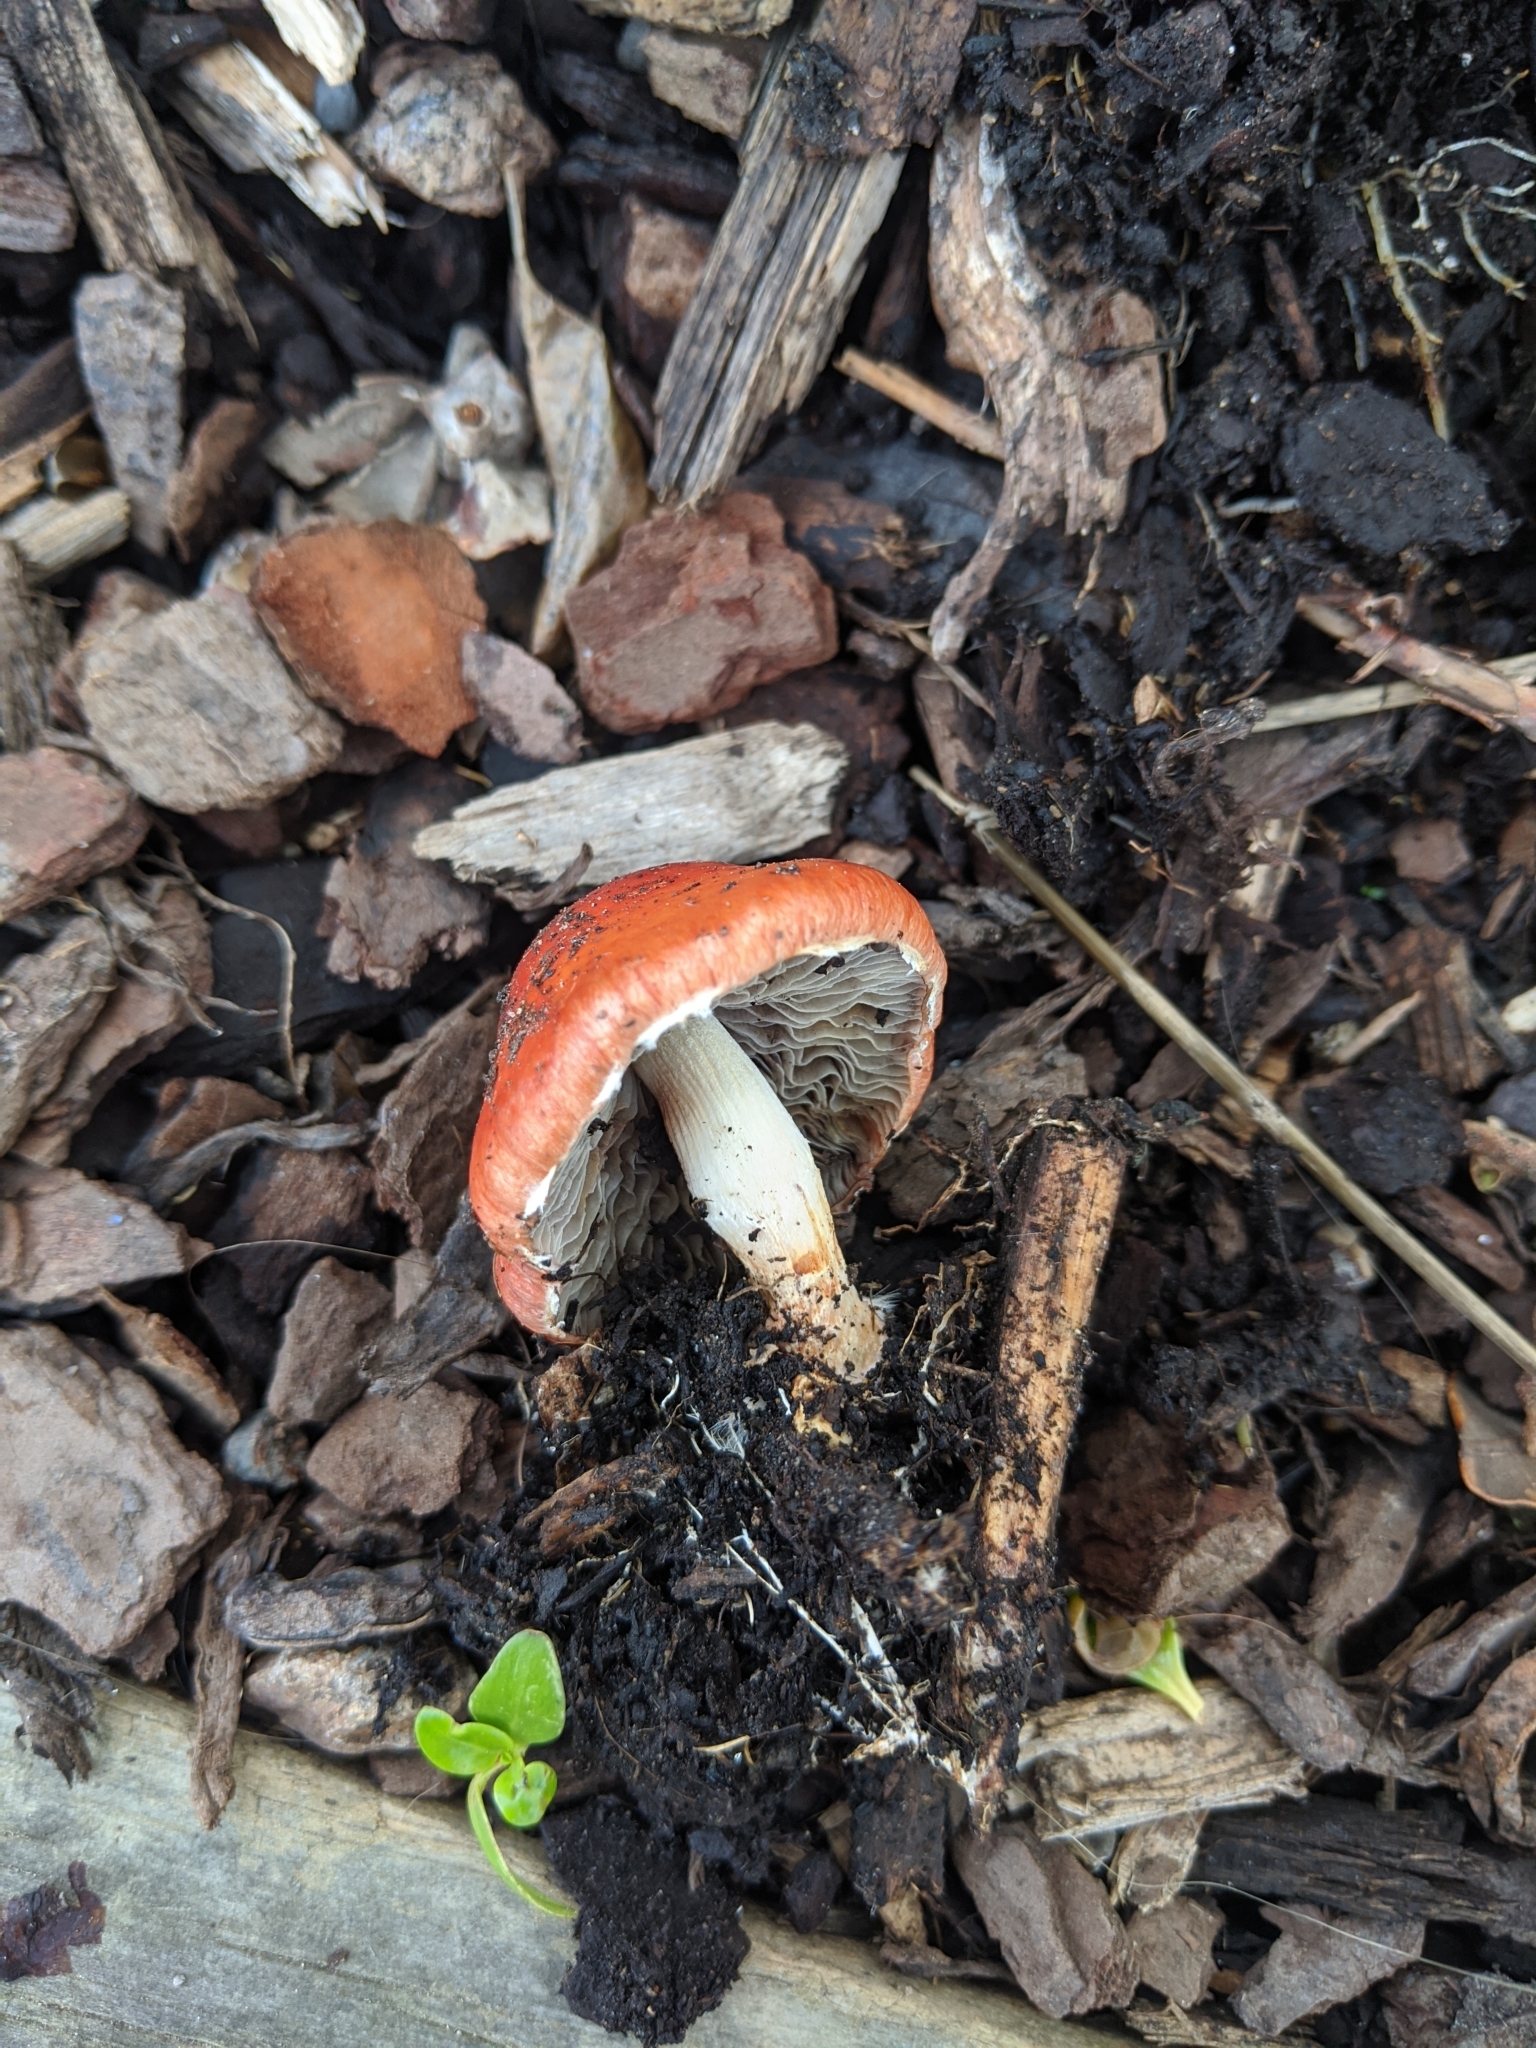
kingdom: Fungi
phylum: Basidiomycota
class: Agaricomycetes
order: Agaricales
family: Strophariaceae
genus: Leratiomyces
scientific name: Leratiomyces ceres
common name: Redlead roundhead
